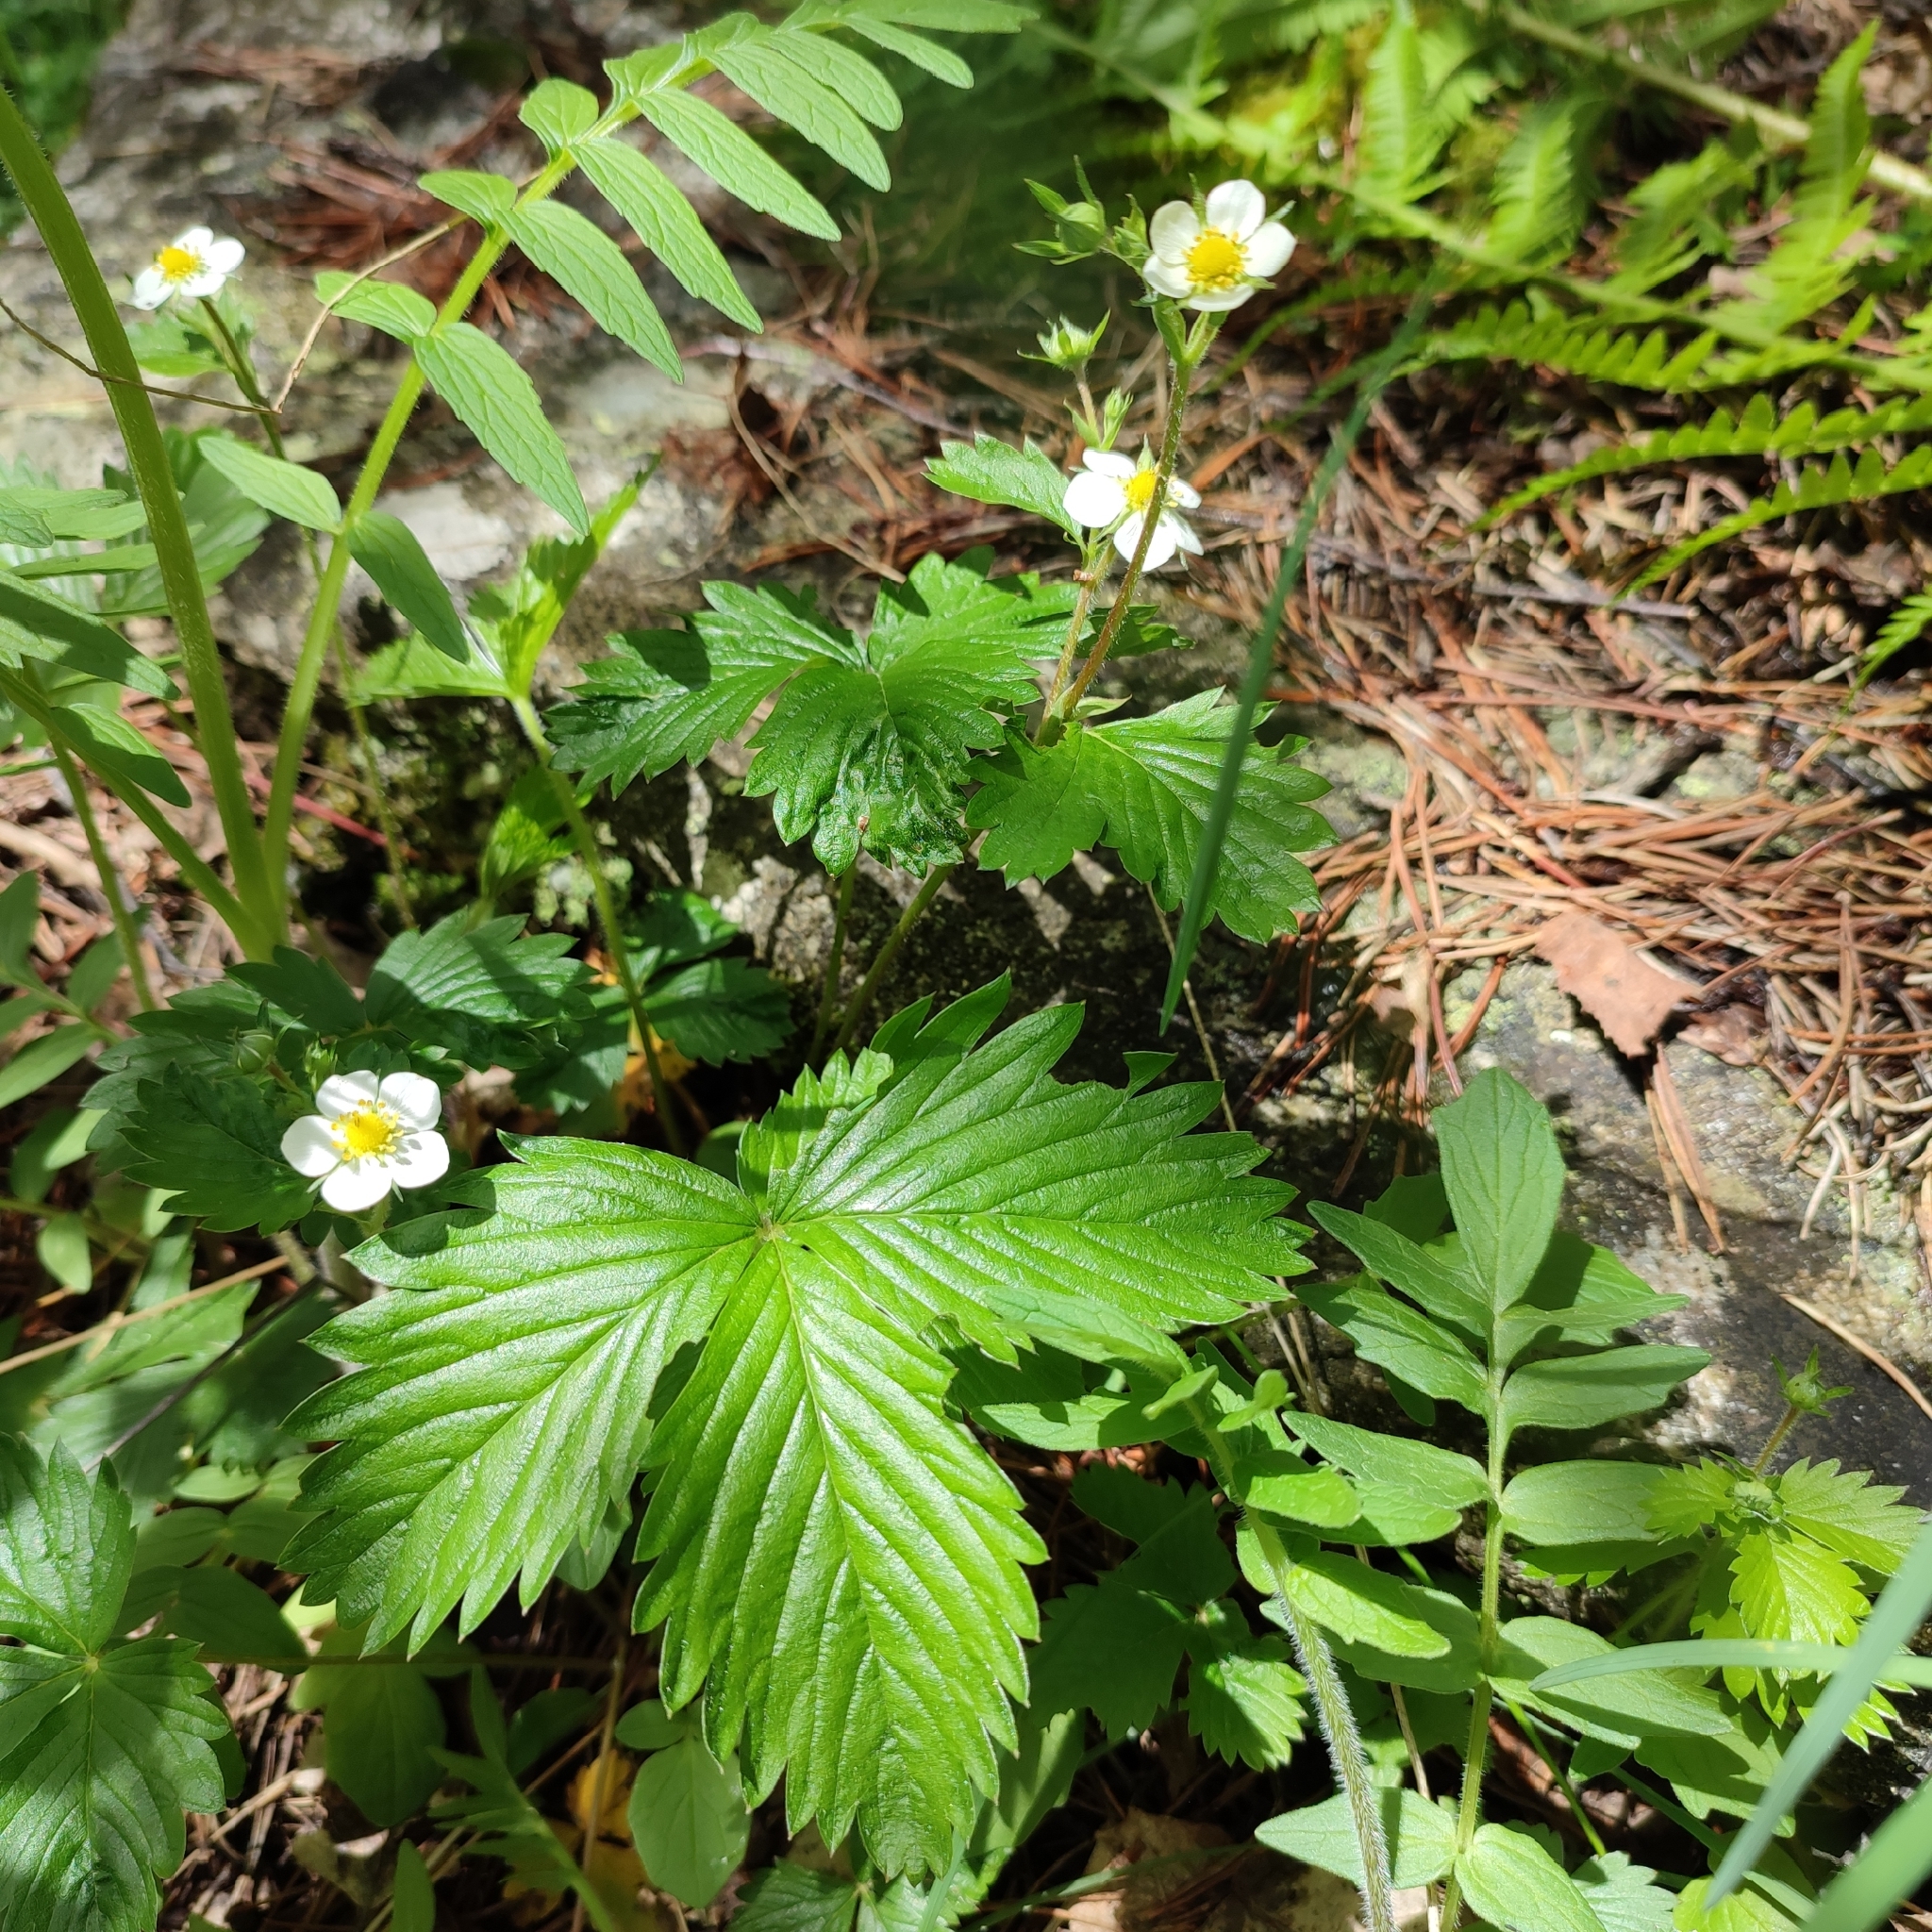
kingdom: Plantae
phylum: Tracheophyta
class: Magnoliopsida
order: Rosales
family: Rosaceae
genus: Fragaria
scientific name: Fragaria vesca
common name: Wild strawberry
